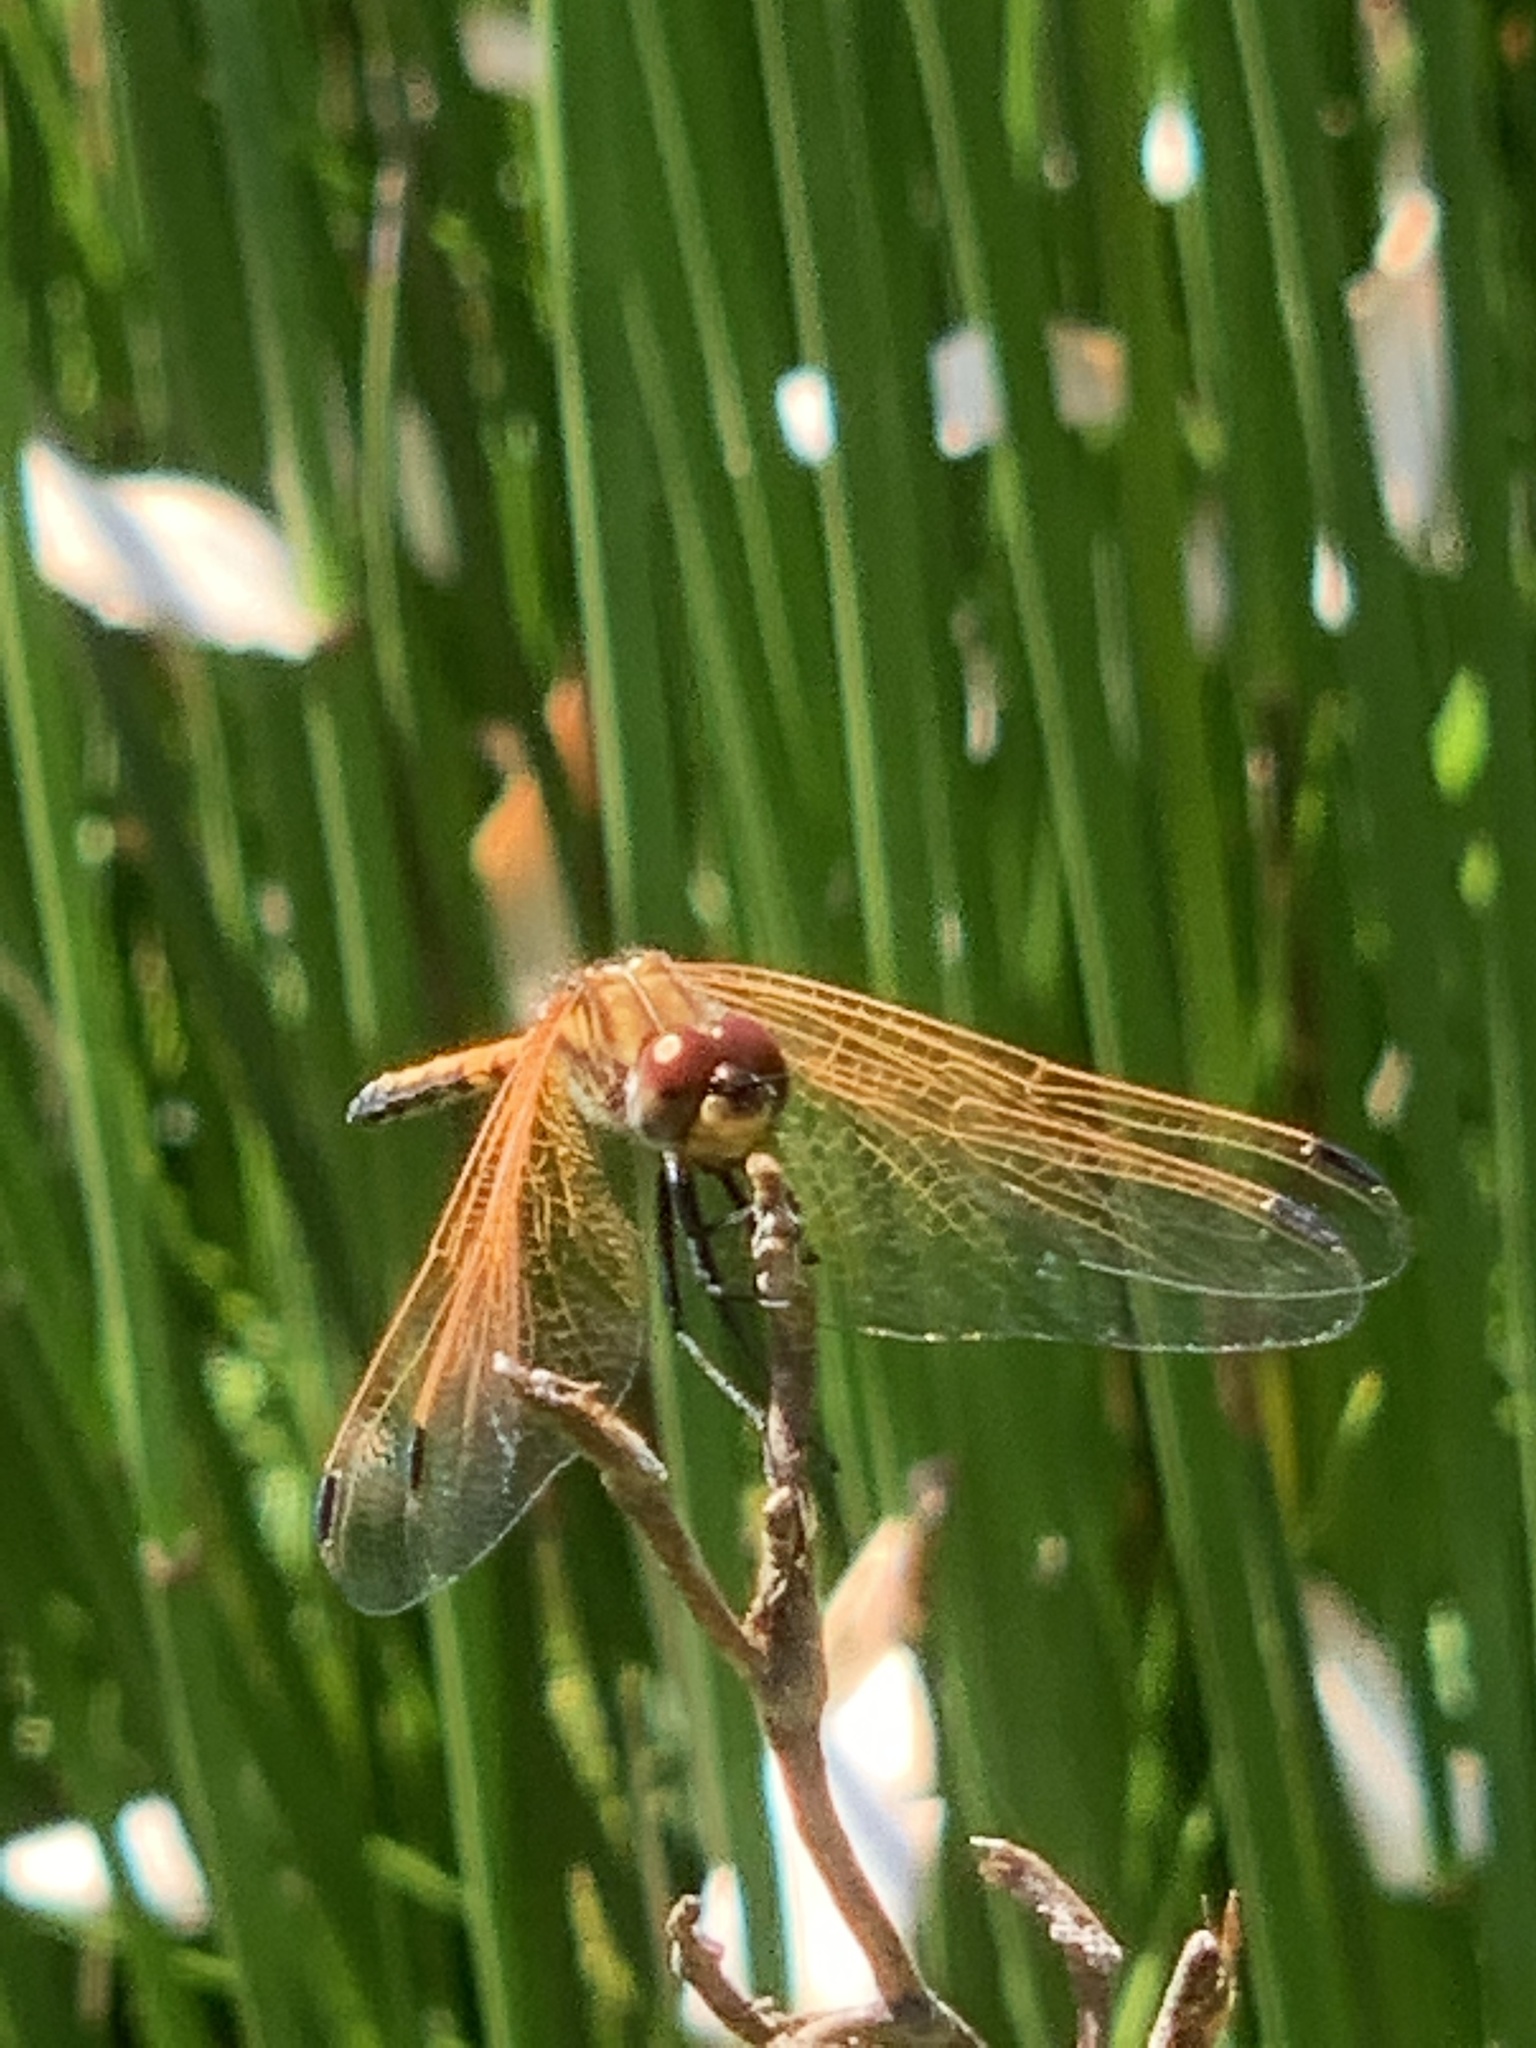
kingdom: Animalia
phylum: Arthropoda
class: Insecta
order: Odonata
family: Libellulidae
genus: Trithemis
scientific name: Trithemis arteriosa
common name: Red-veined dropwing
